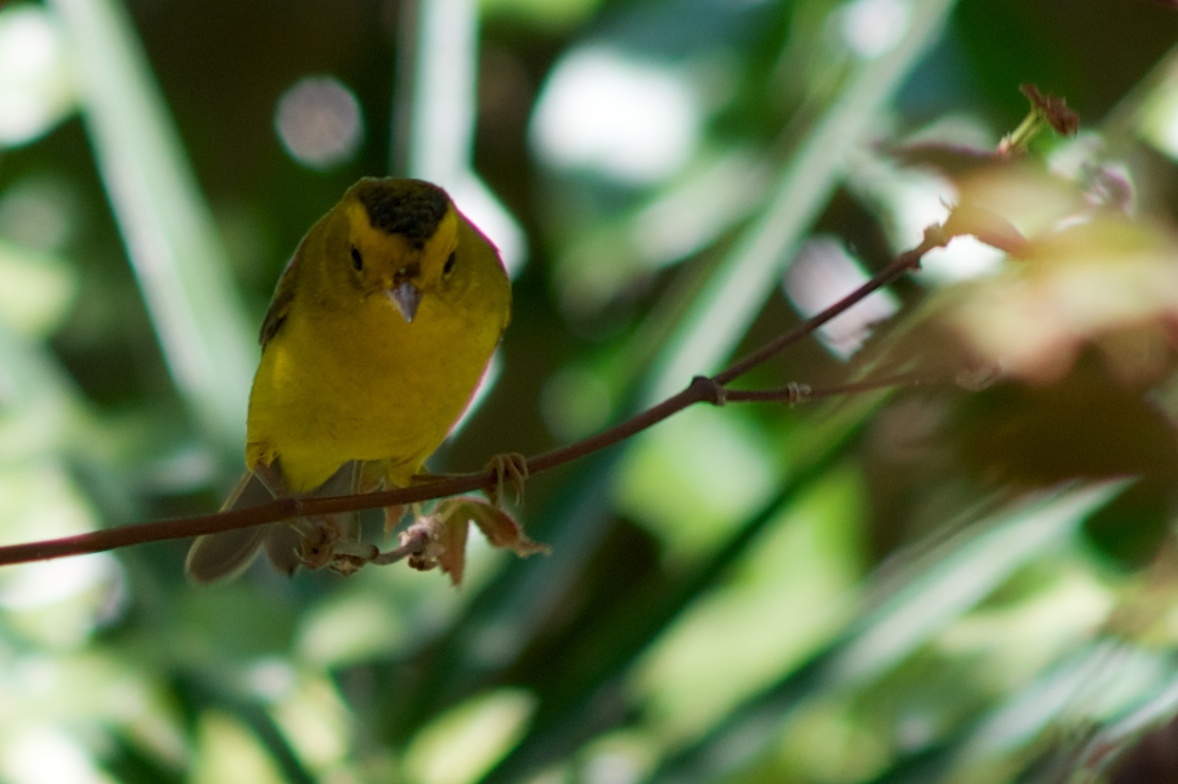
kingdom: Animalia
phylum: Chordata
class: Aves
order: Passeriformes
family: Parulidae
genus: Cardellina
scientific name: Cardellina pusilla
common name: Wilson's warbler
